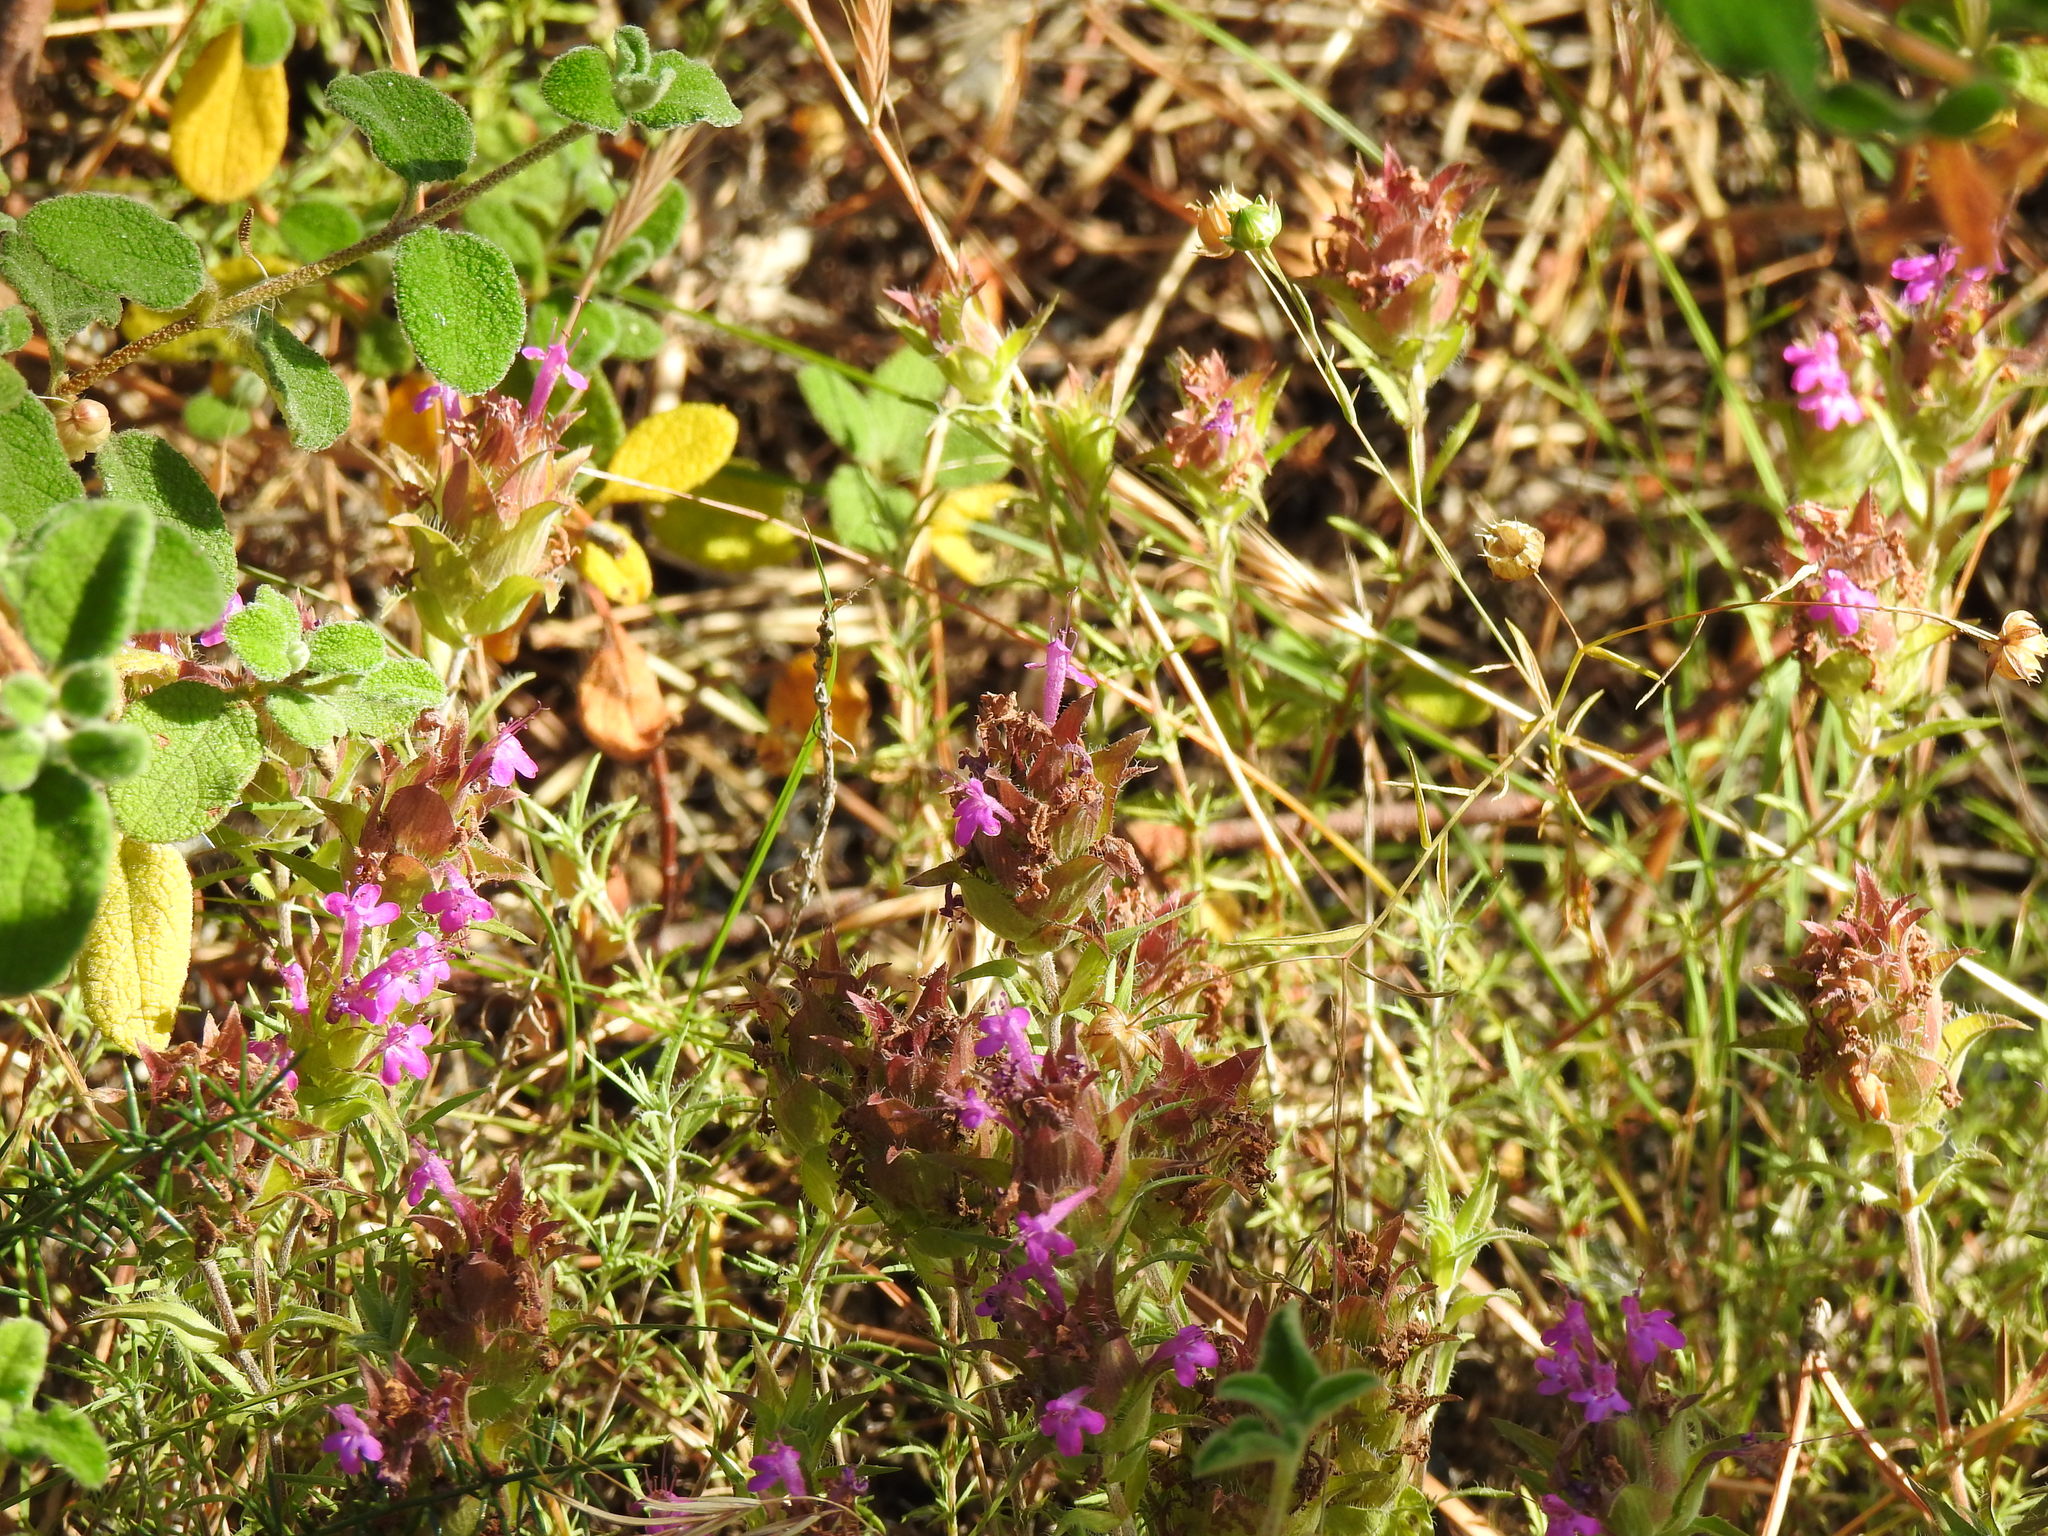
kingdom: Plantae
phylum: Tracheophyta
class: Magnoliopsida
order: Lamiales
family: Lamiaceae
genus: Thymus
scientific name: Thymus lotocephalus
